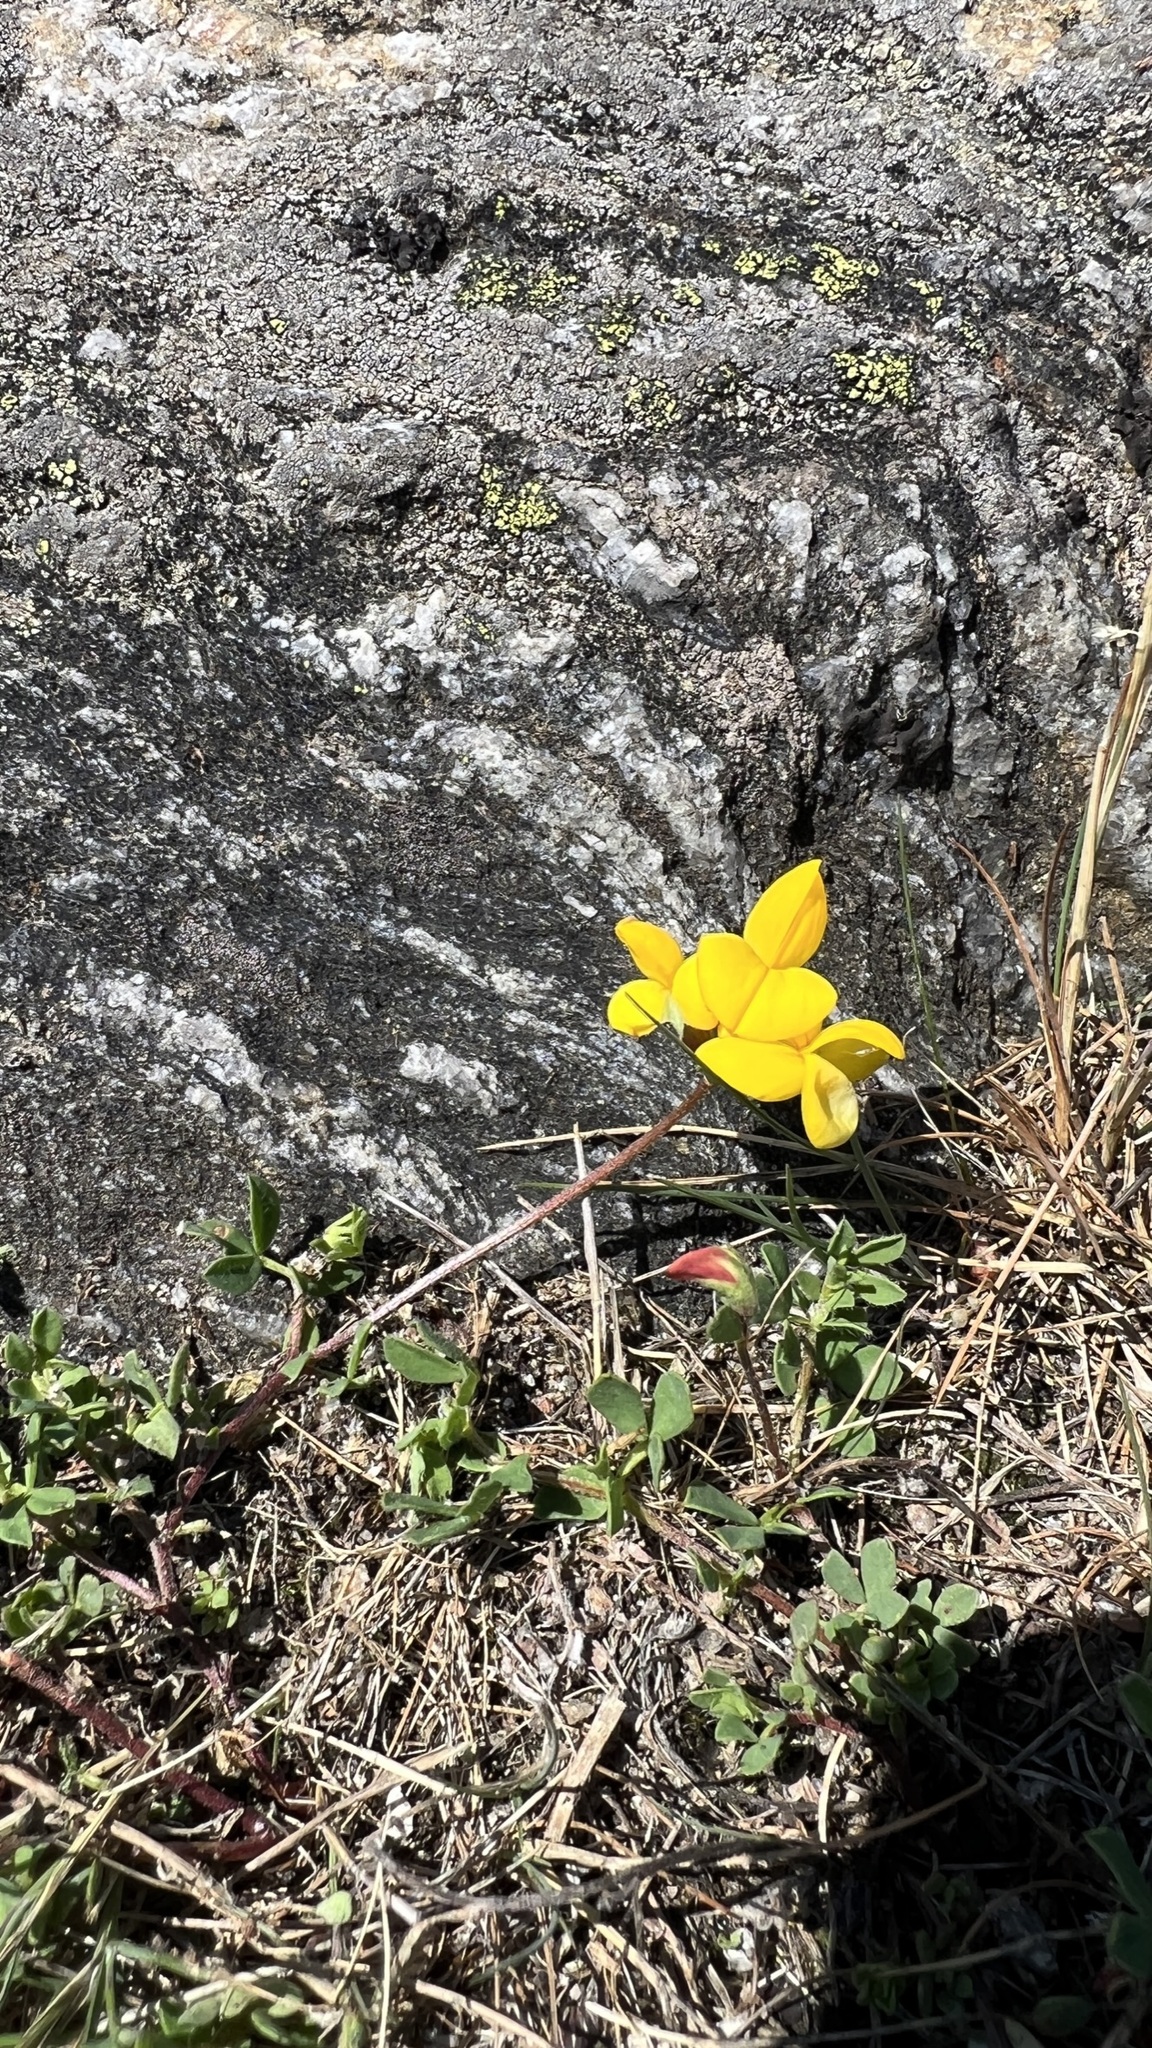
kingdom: Plantae
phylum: Tracheophyta
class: Magnoliopsida
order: Fabales
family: Fabaceae
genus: Lotus
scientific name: Lotus corniculatus
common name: Common bird's-foot-trefoil
